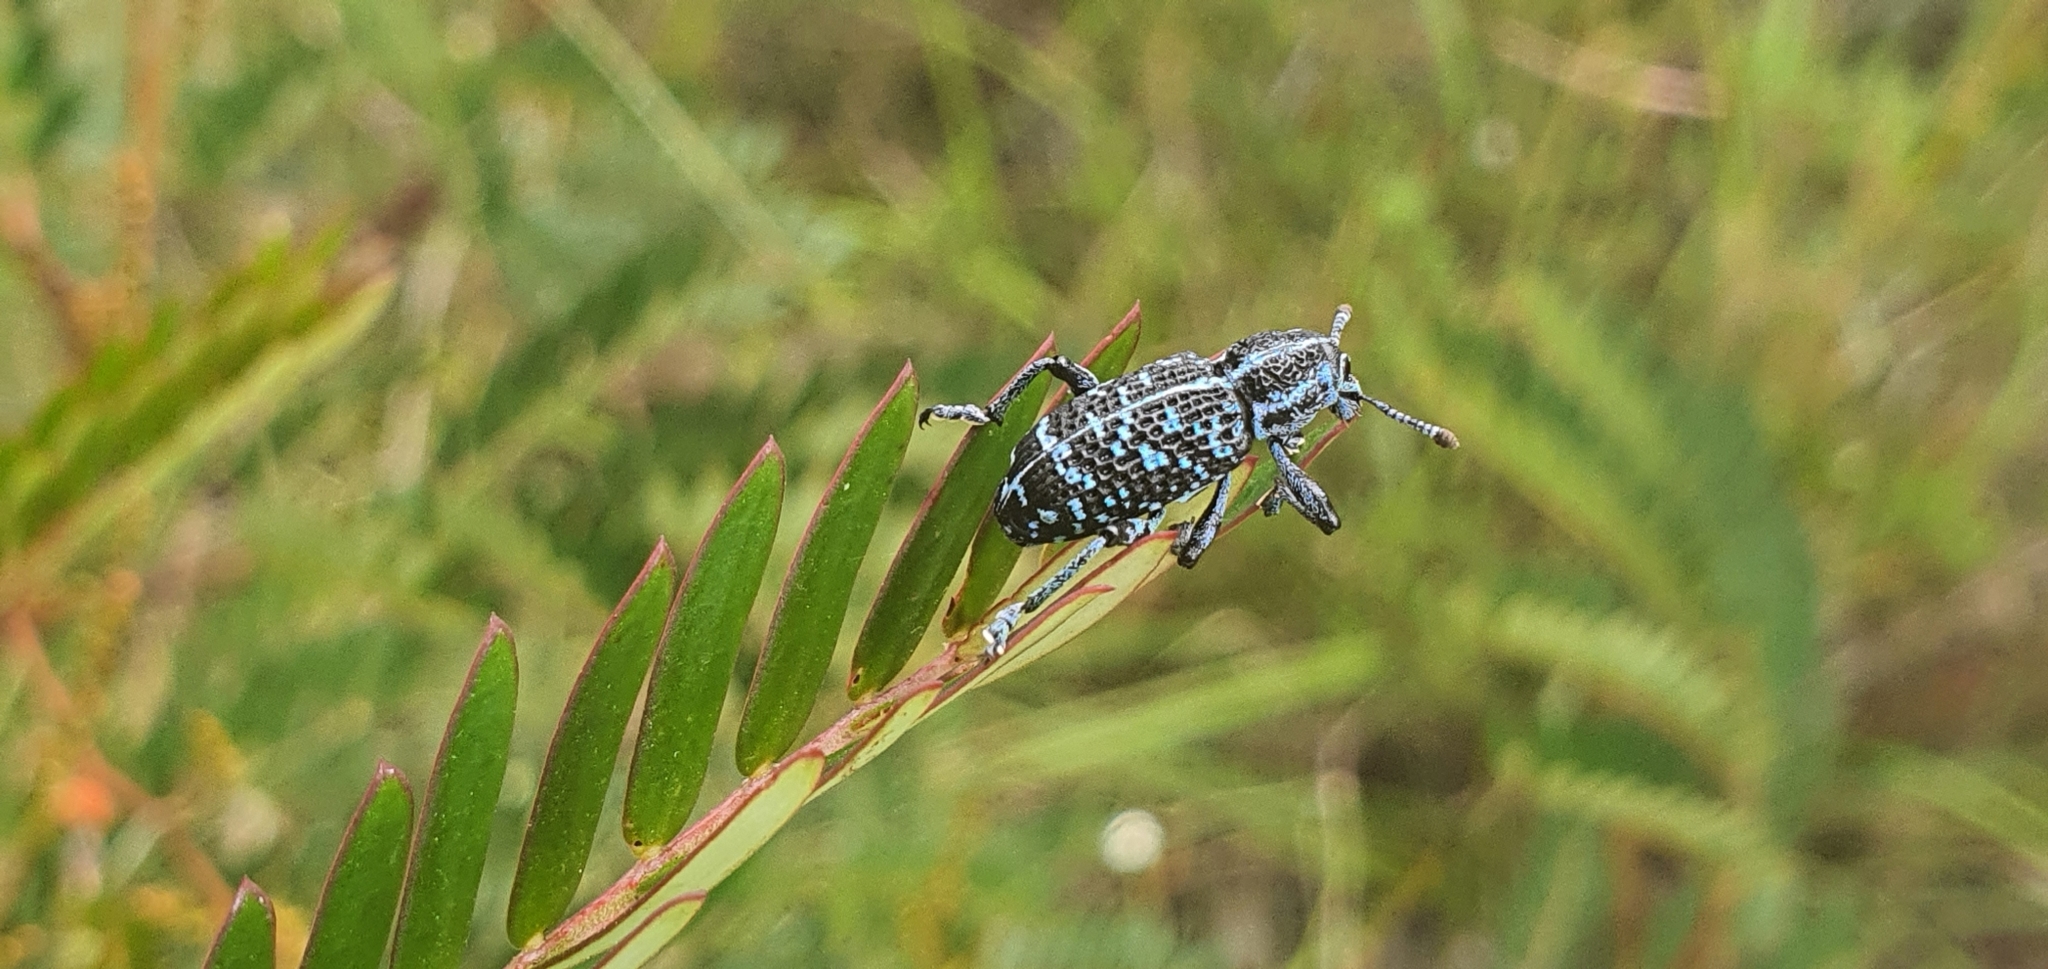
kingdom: Animalia
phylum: Arthropoda
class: Insecta
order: Coleoptera
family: Curculionidae
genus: Chrysolopus
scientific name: Chrysolopus spectabilis
